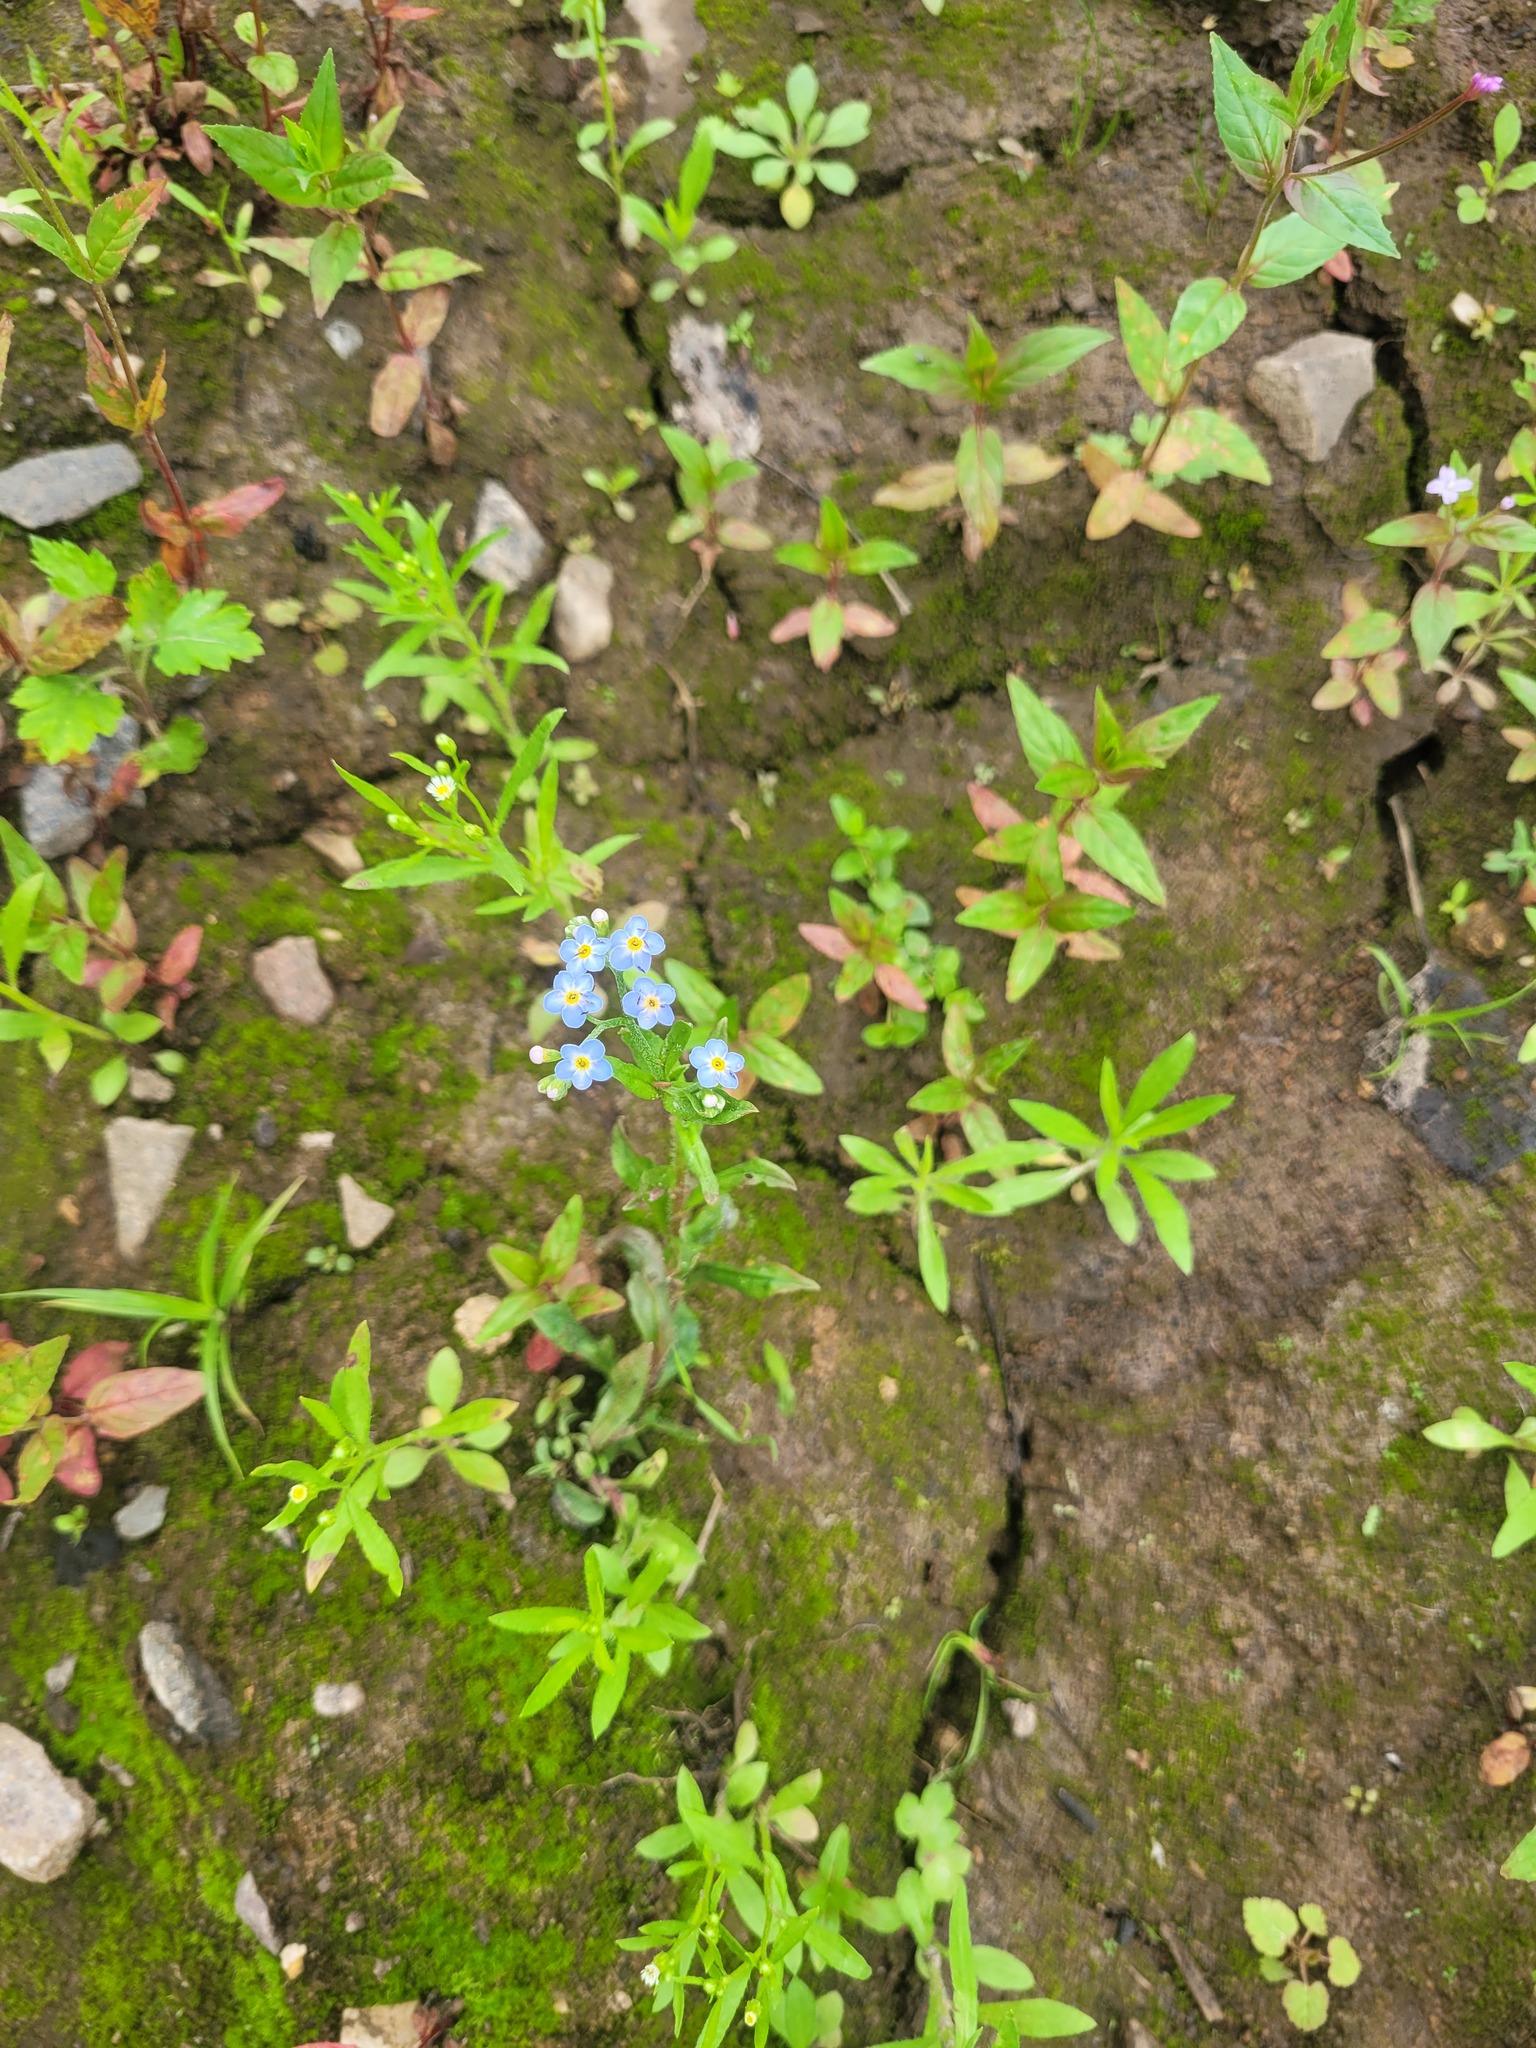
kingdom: Plantae
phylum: Tracheophyta
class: Magnoliopsida
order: Boraginales
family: Boraginaceae
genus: Myosotis
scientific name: Myosotis scorpioides
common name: Water forget-me-not
